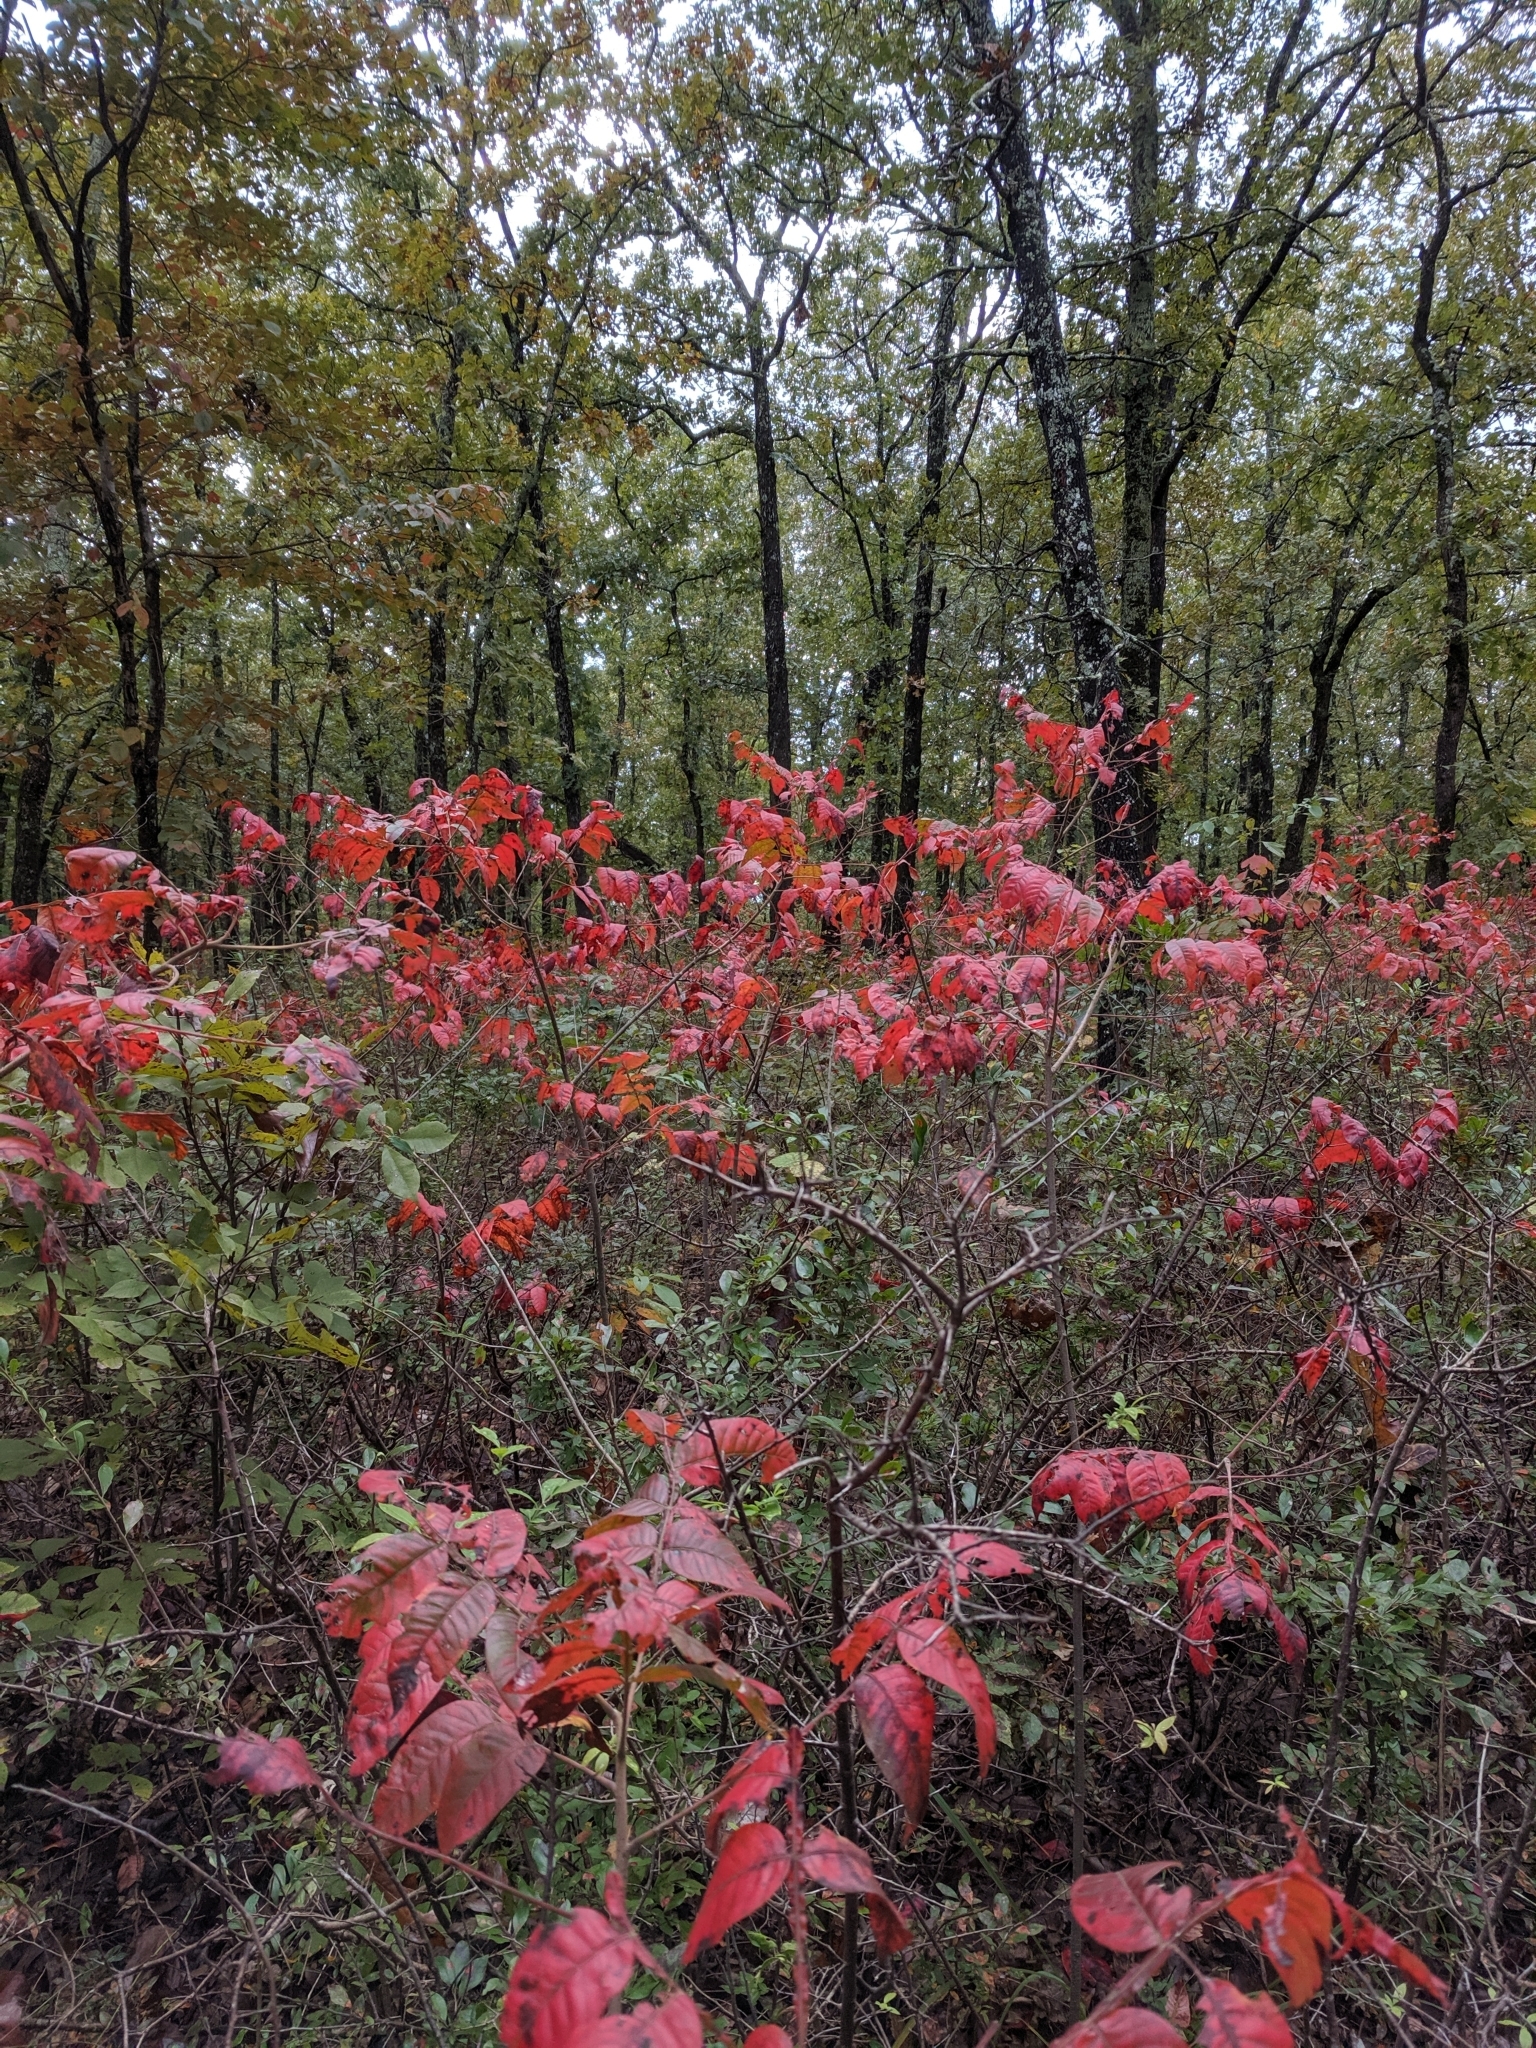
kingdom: Plantae
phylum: Tracheophyta
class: Magnoliopsida
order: Sapindales
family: Anacardiaceae
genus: Rhus
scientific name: Rhus copallina
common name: Shining sumac
